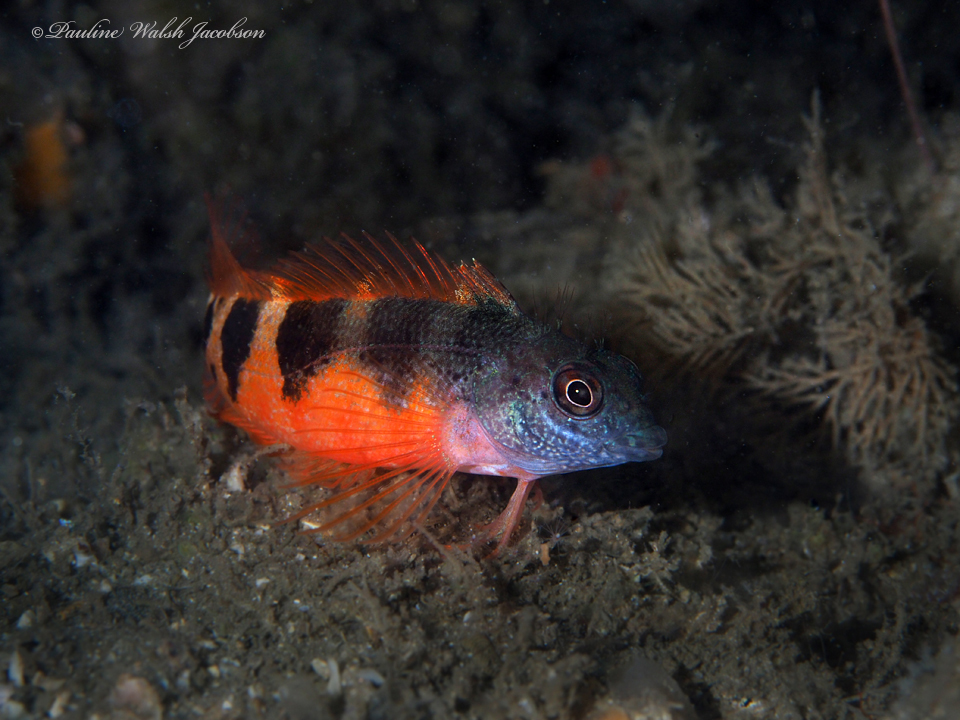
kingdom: Animalia
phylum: Chordata
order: Perciformes
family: Labrisomidae
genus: Malacoctenus
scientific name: Malacoctenus triangulatus
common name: Saddled blenny
